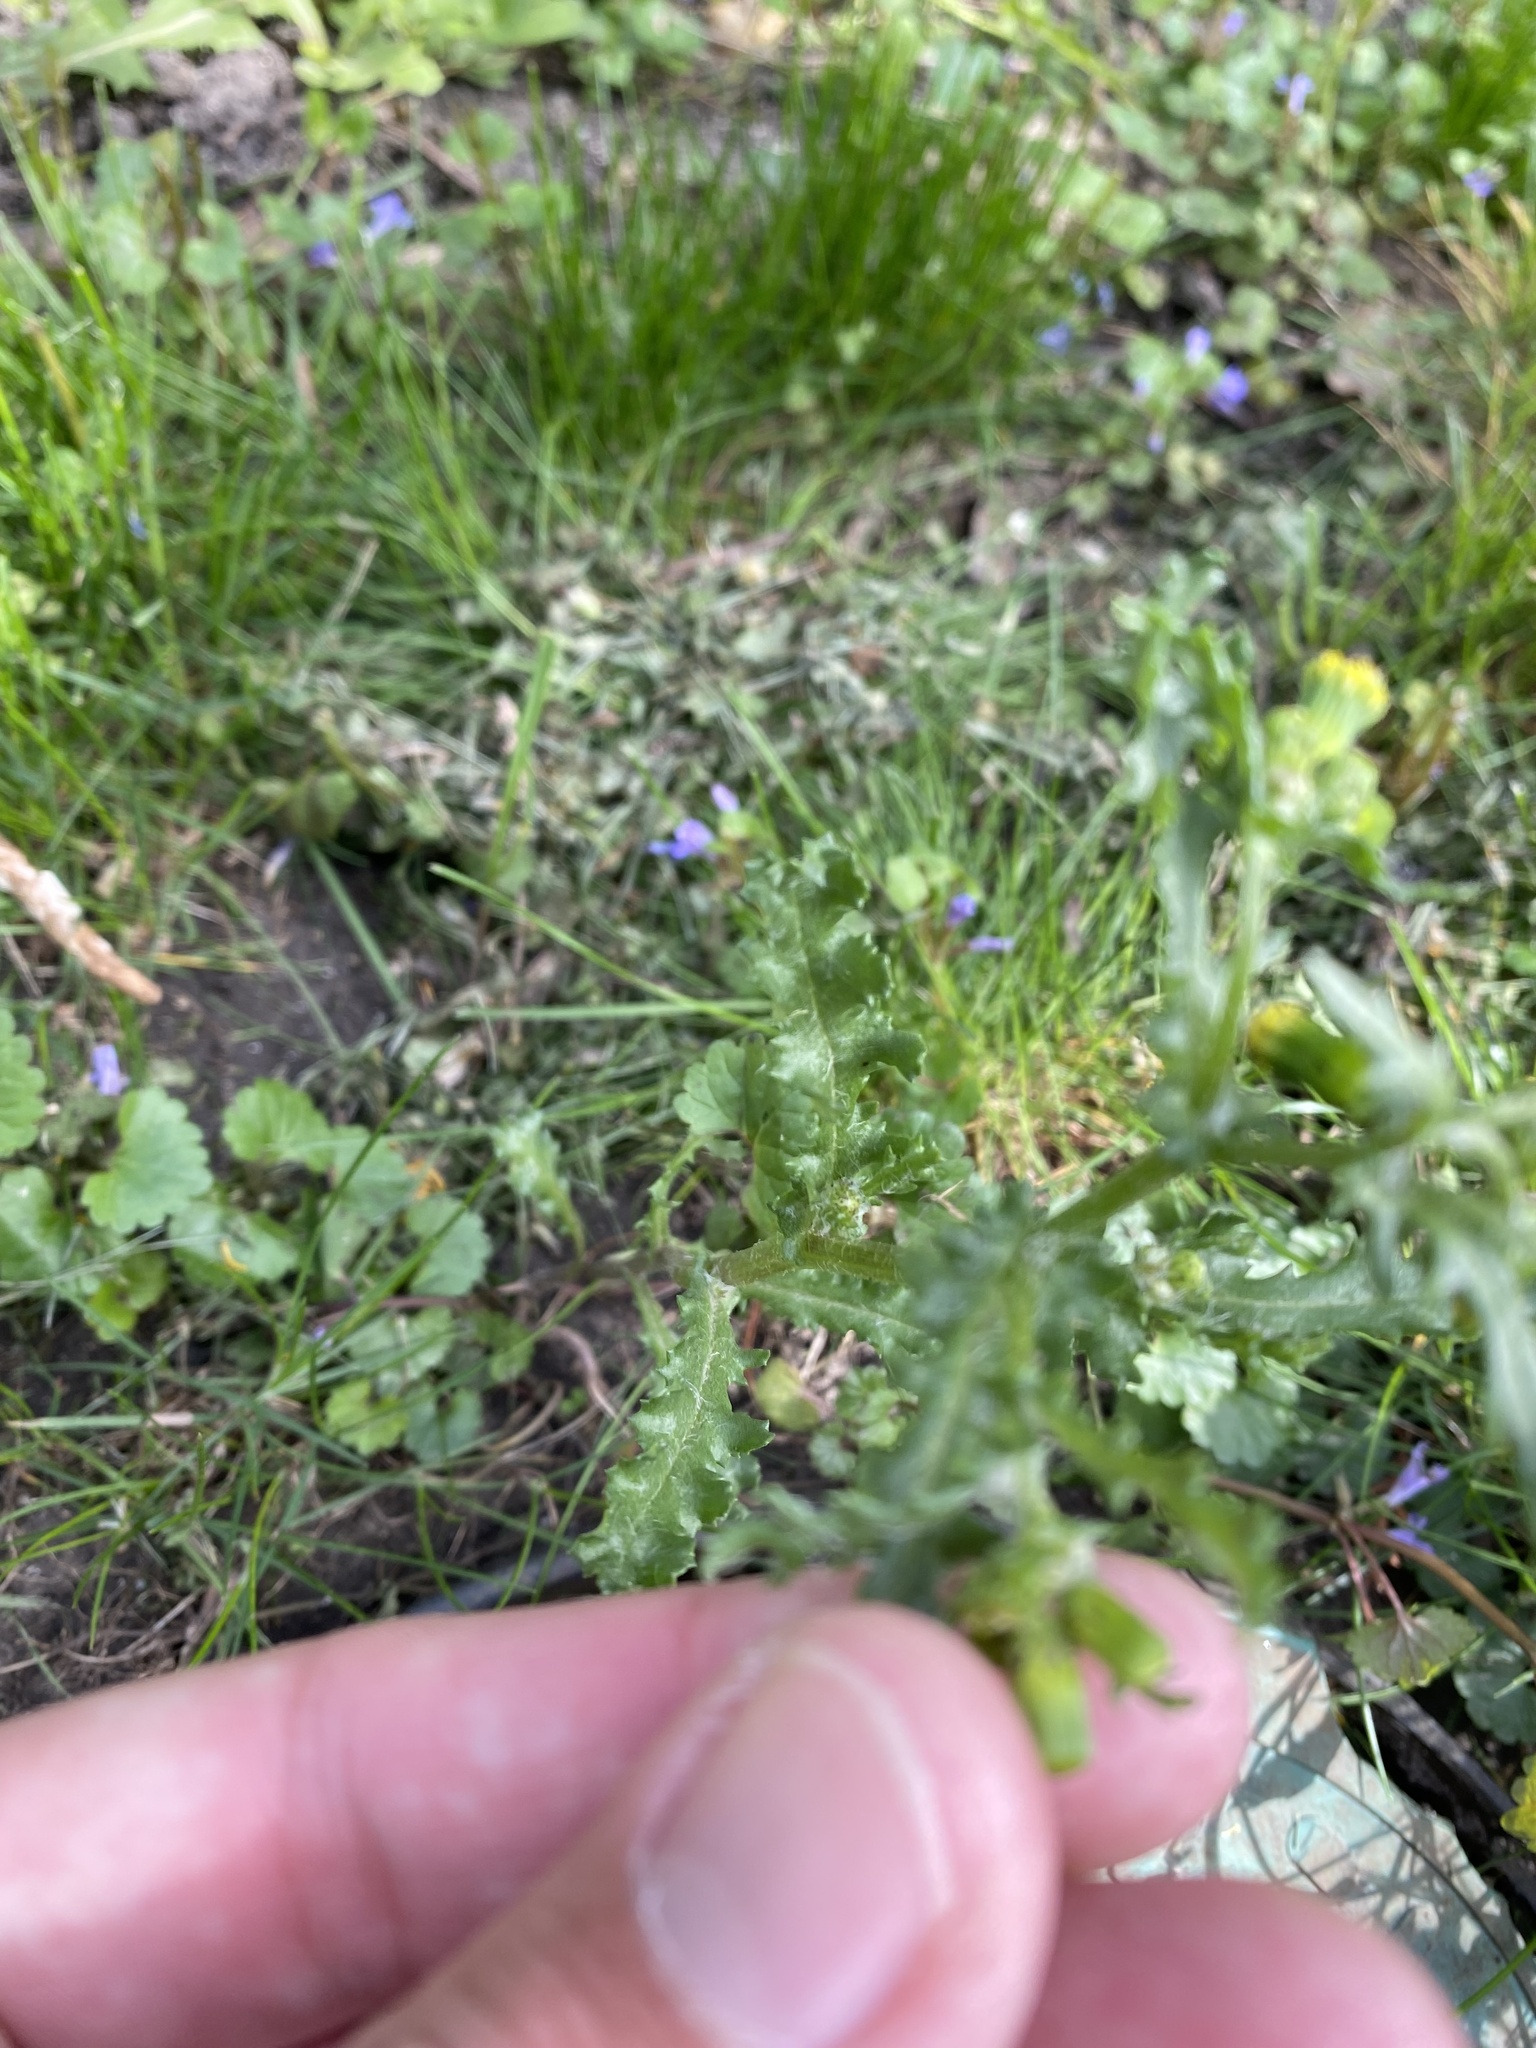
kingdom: Plantae
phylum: Tracheophyta
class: Magnoliopsida
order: Asterales
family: Asteraceae
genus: Senecio
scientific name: Senecio vulgaris
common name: Old-man-in-the-spring
